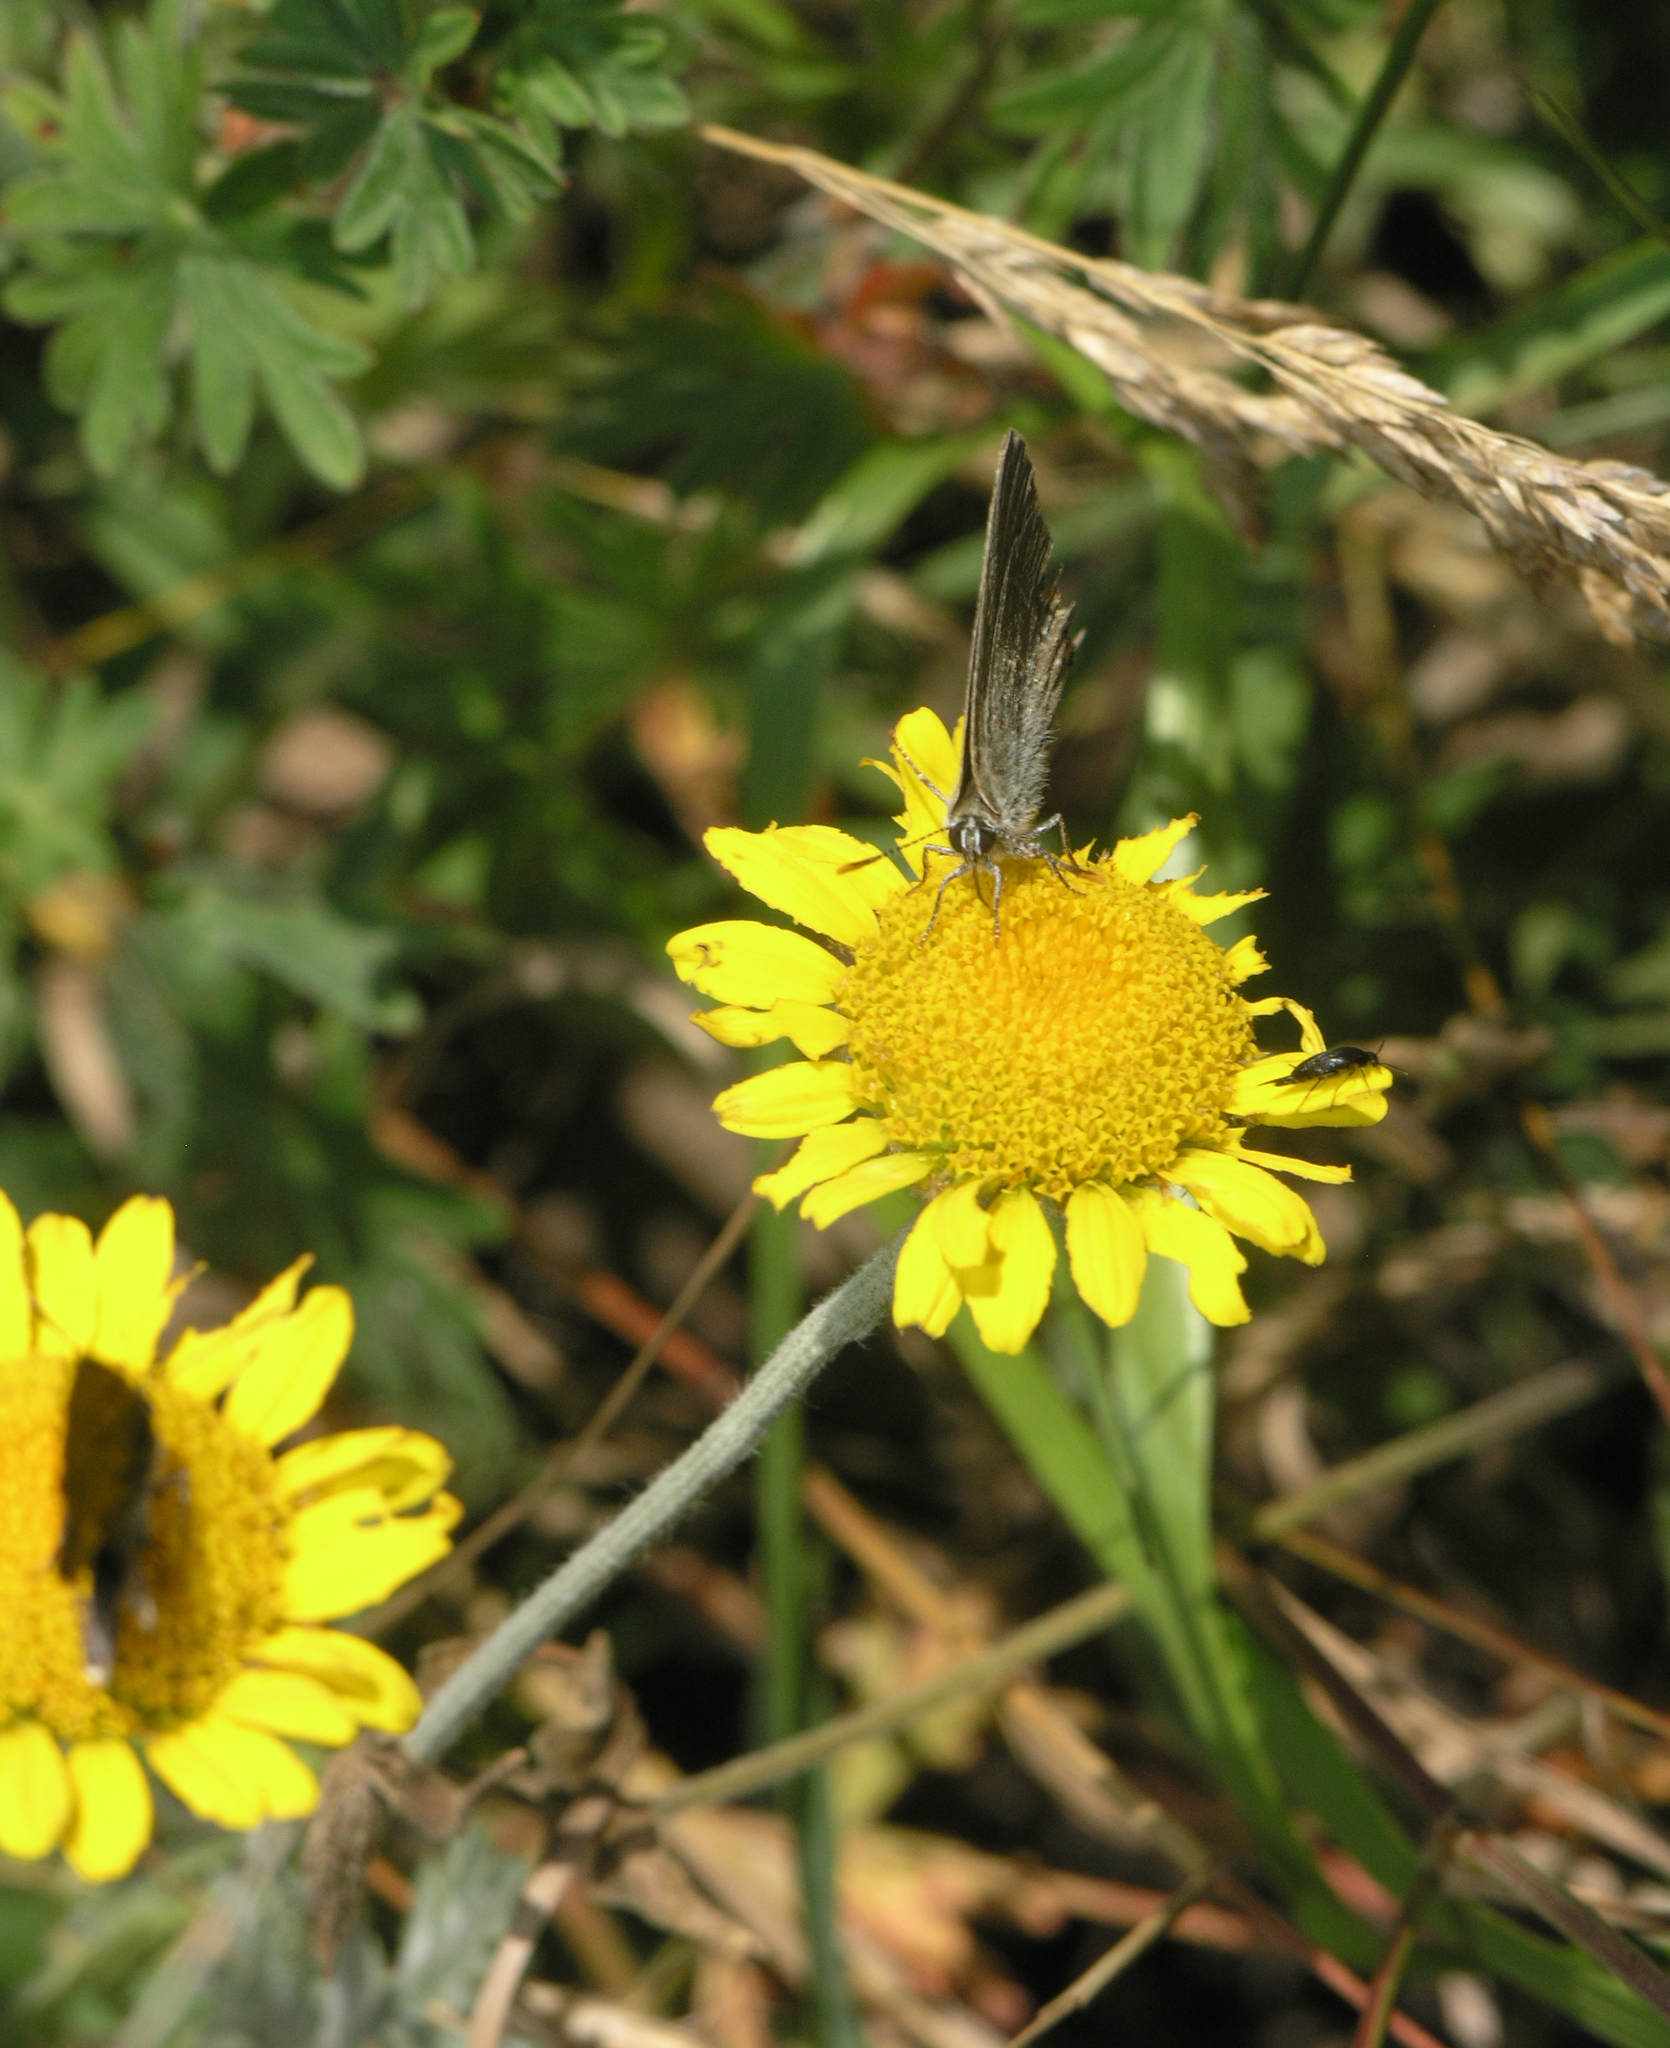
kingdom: Animalia
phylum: Arthropoda
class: Insecta
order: Lepidoptera
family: Lycaenidae
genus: Strymon
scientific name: Strymon acaciae
